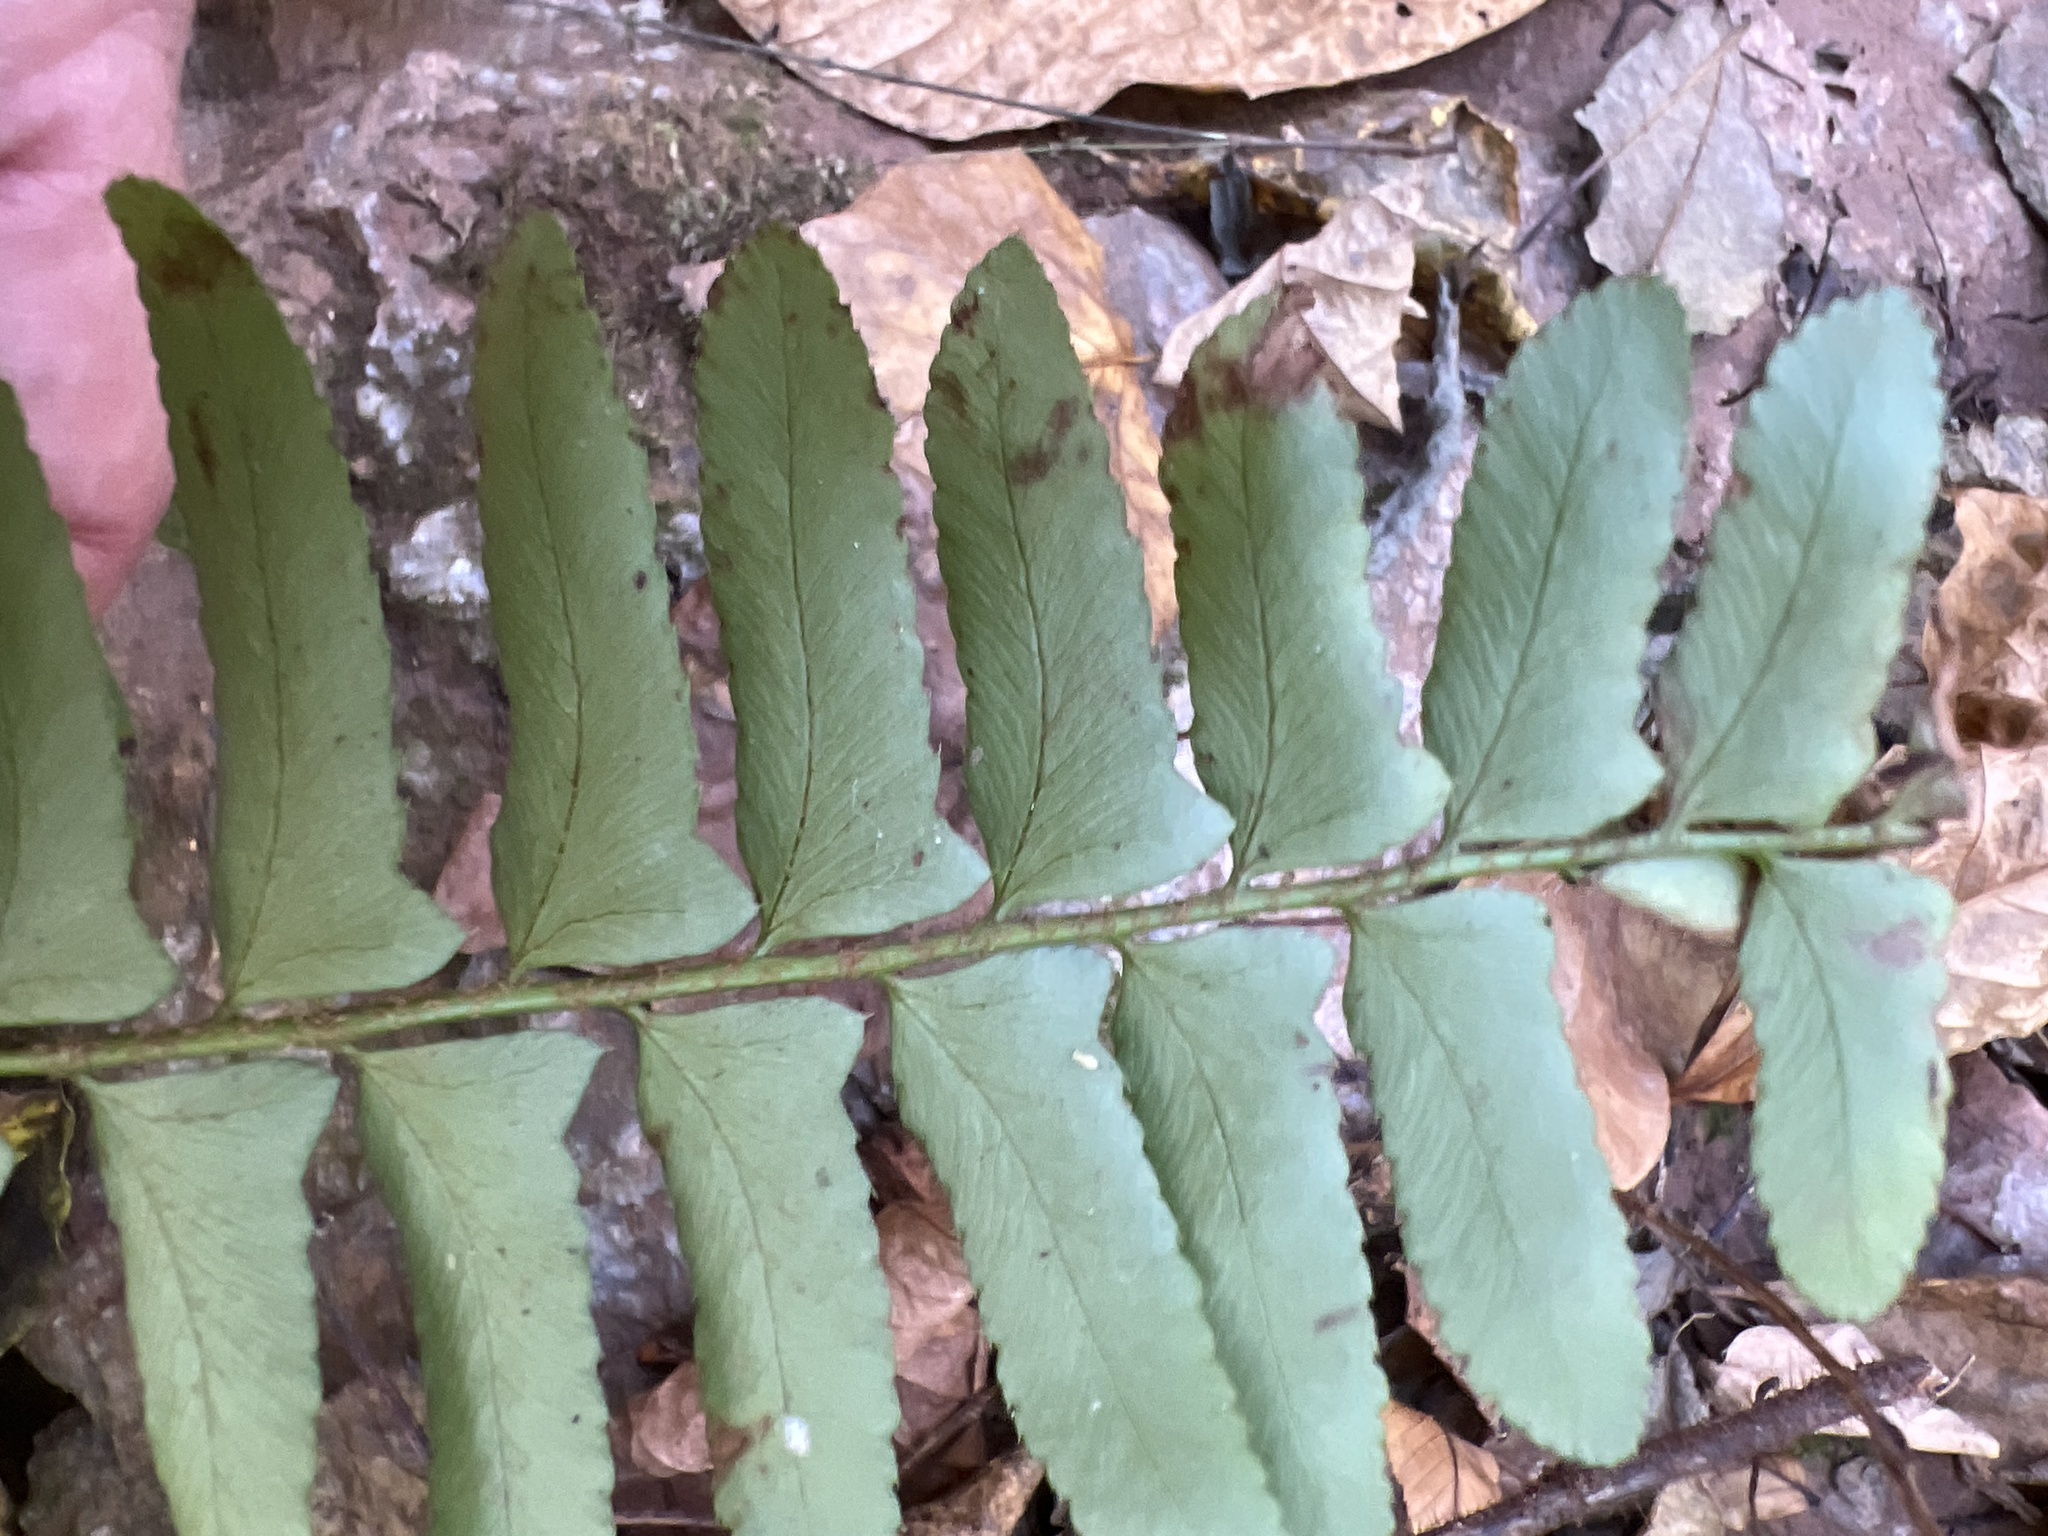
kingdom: Plantae
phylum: Tracheophyta
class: Polypodiopsida
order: Polypodiales
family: Dryopteridaceae
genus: Polystichum
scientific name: Polystichum acrostichoides
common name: Christmas fern
